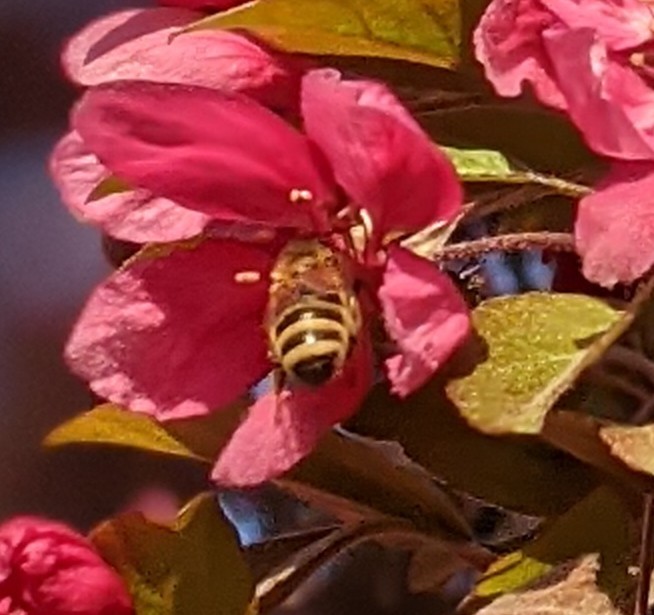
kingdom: Animalia
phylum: Arthropoda
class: Insecta
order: Hymenoptera
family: Apidae
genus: Apis
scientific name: Apis mellifera
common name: Honey bee
